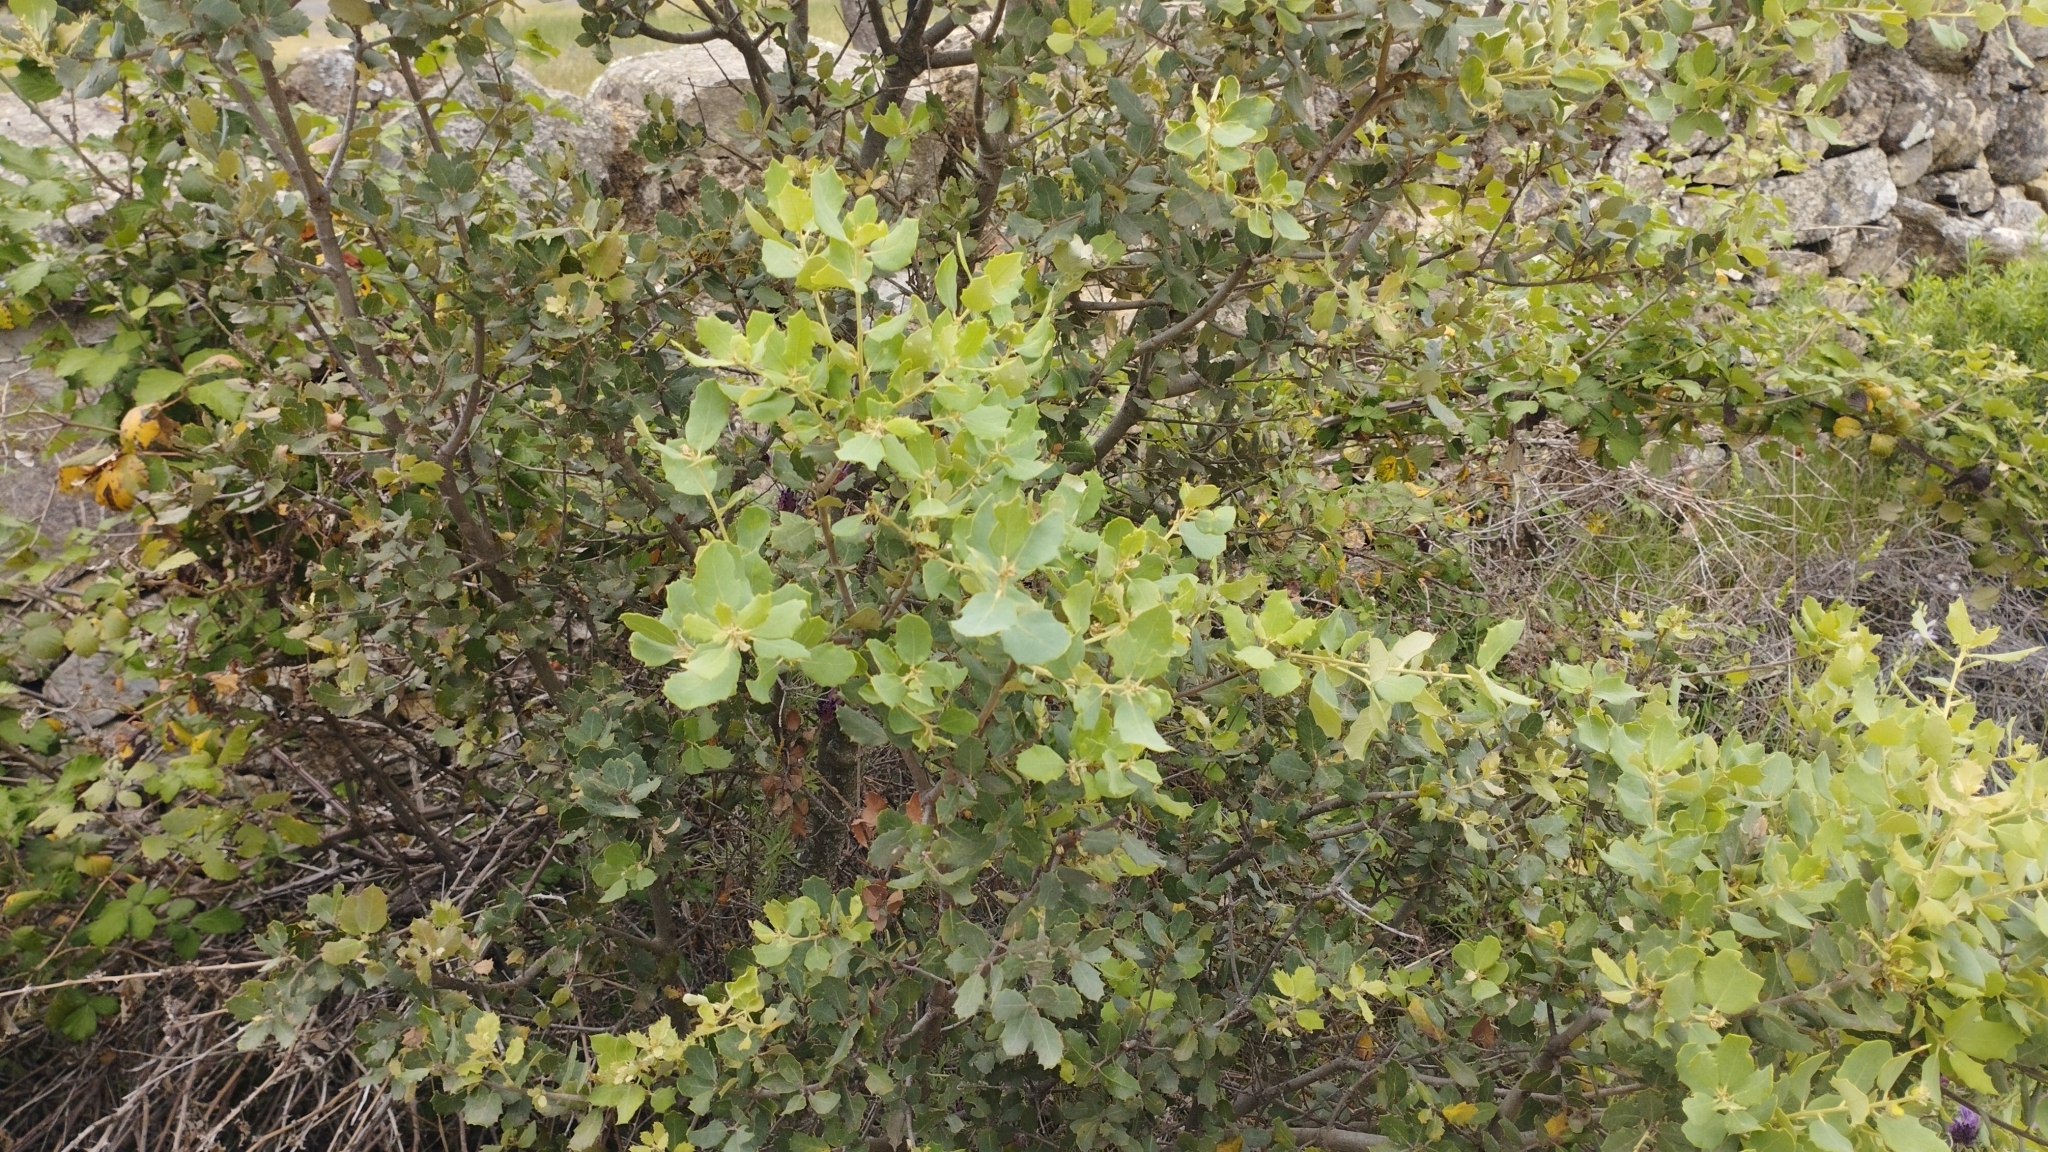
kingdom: Plantae
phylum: Tracheophyta
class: Magnoliopsida
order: Fagales
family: Fagaceae
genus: Quercus
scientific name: Quercus rotundifolia
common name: Holm oak
